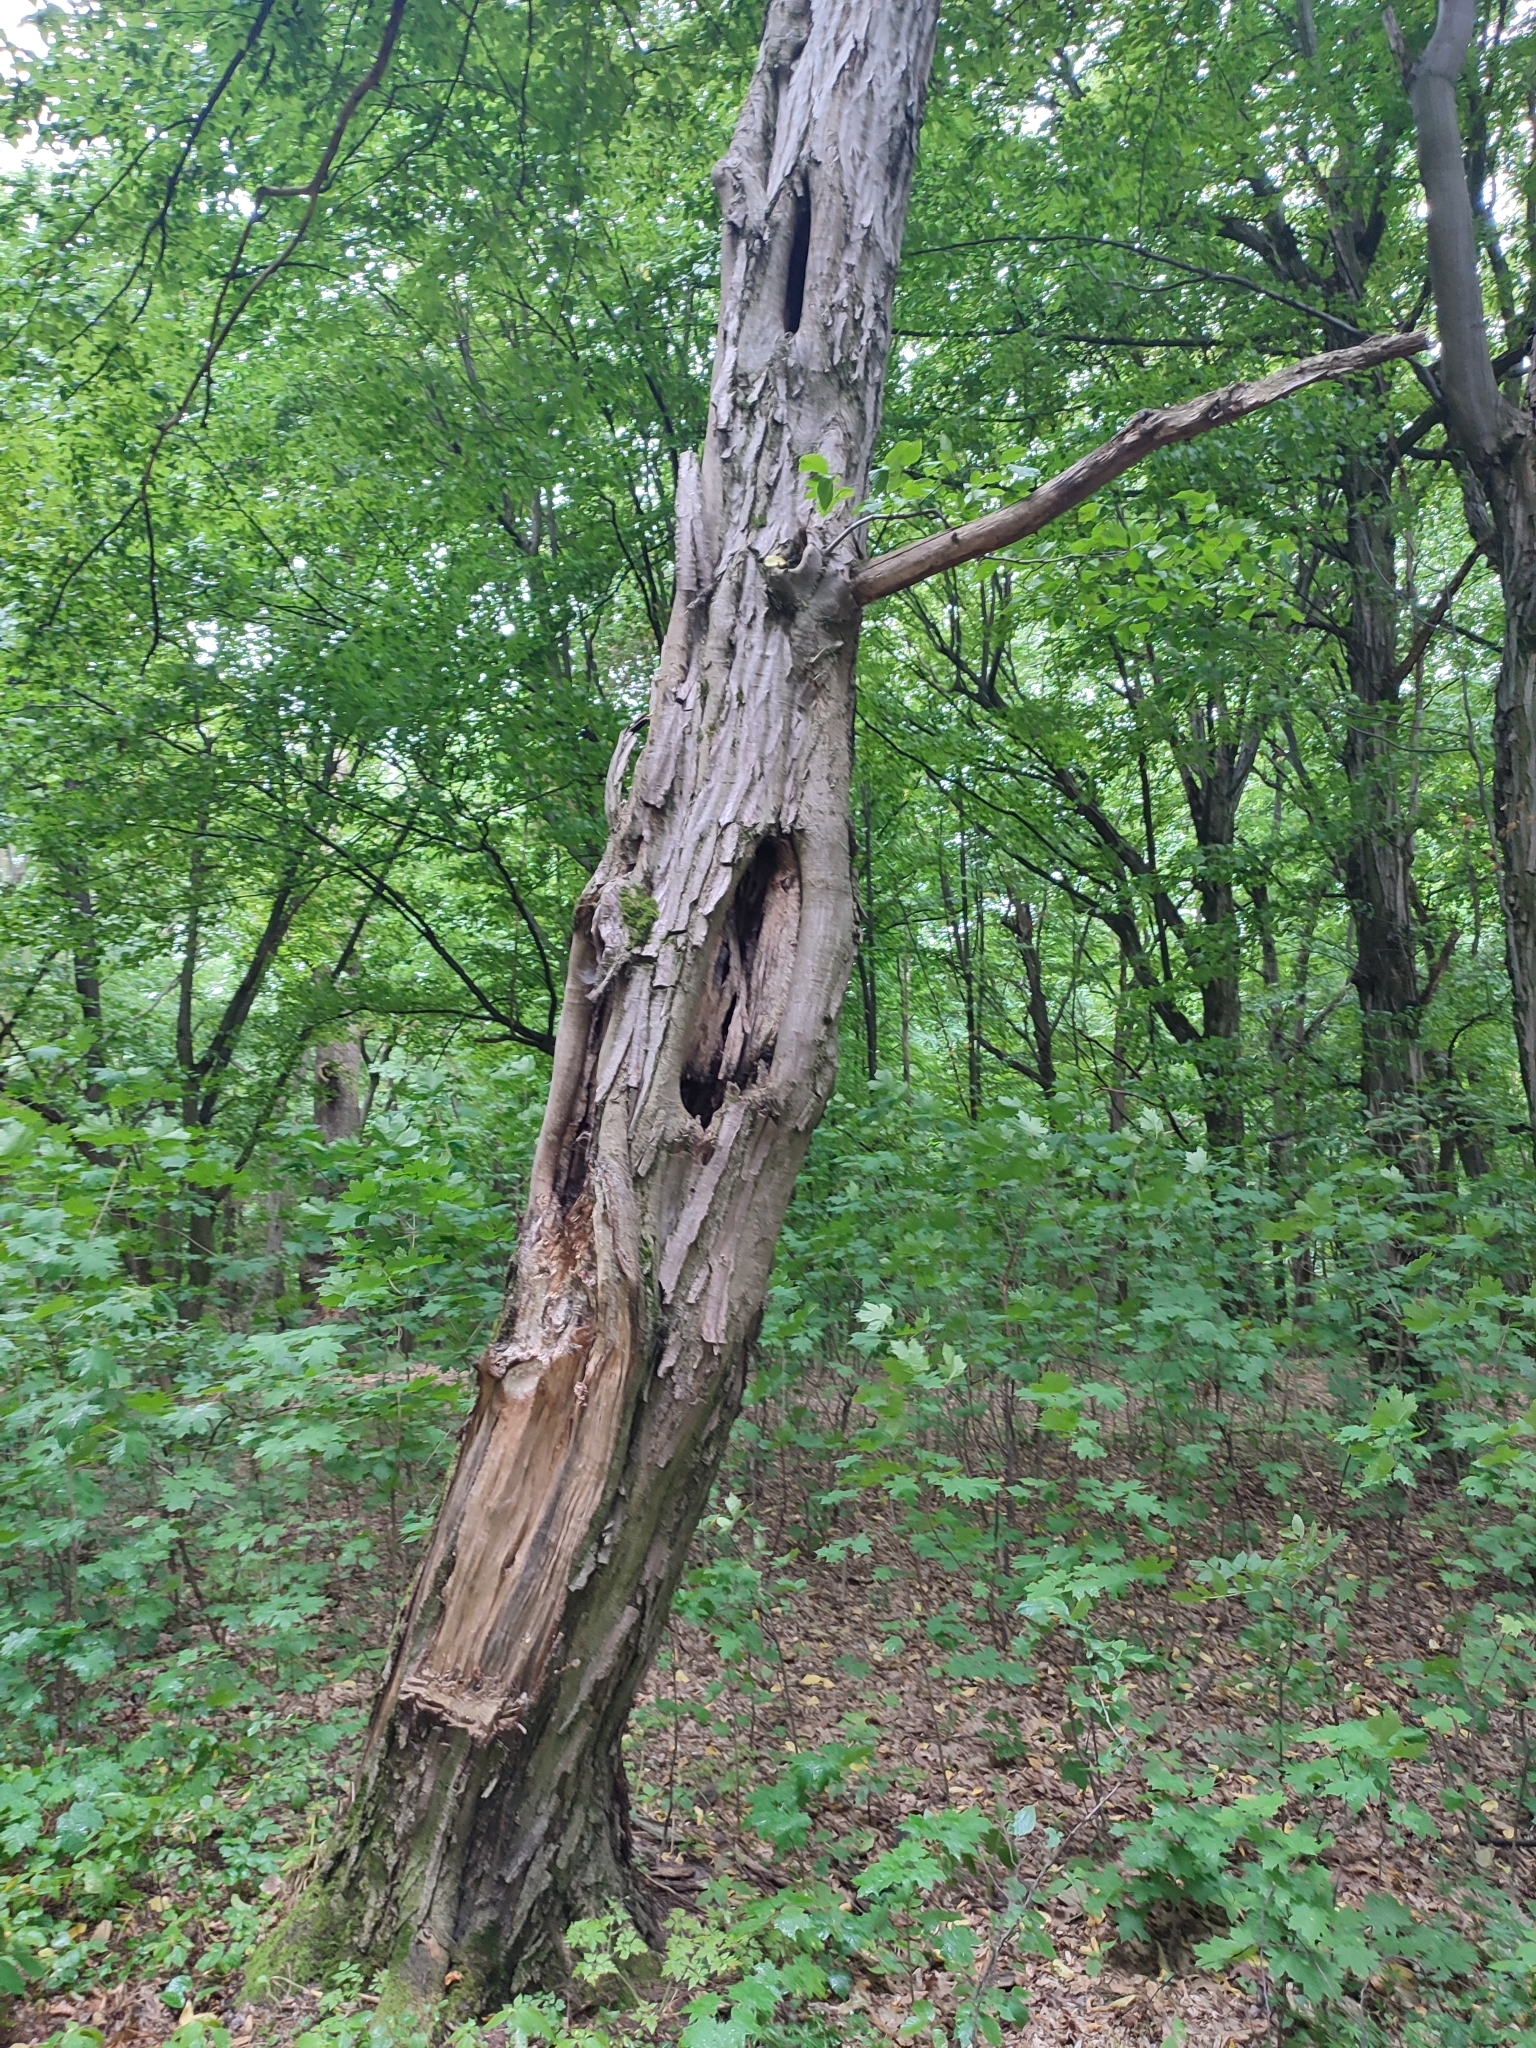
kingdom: Plantae
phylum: Tracheophyta
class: Magnoliopsida
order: Fagales
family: Betulaceae
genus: Carpinus
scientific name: Carpinus betulus
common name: Hornbeam
